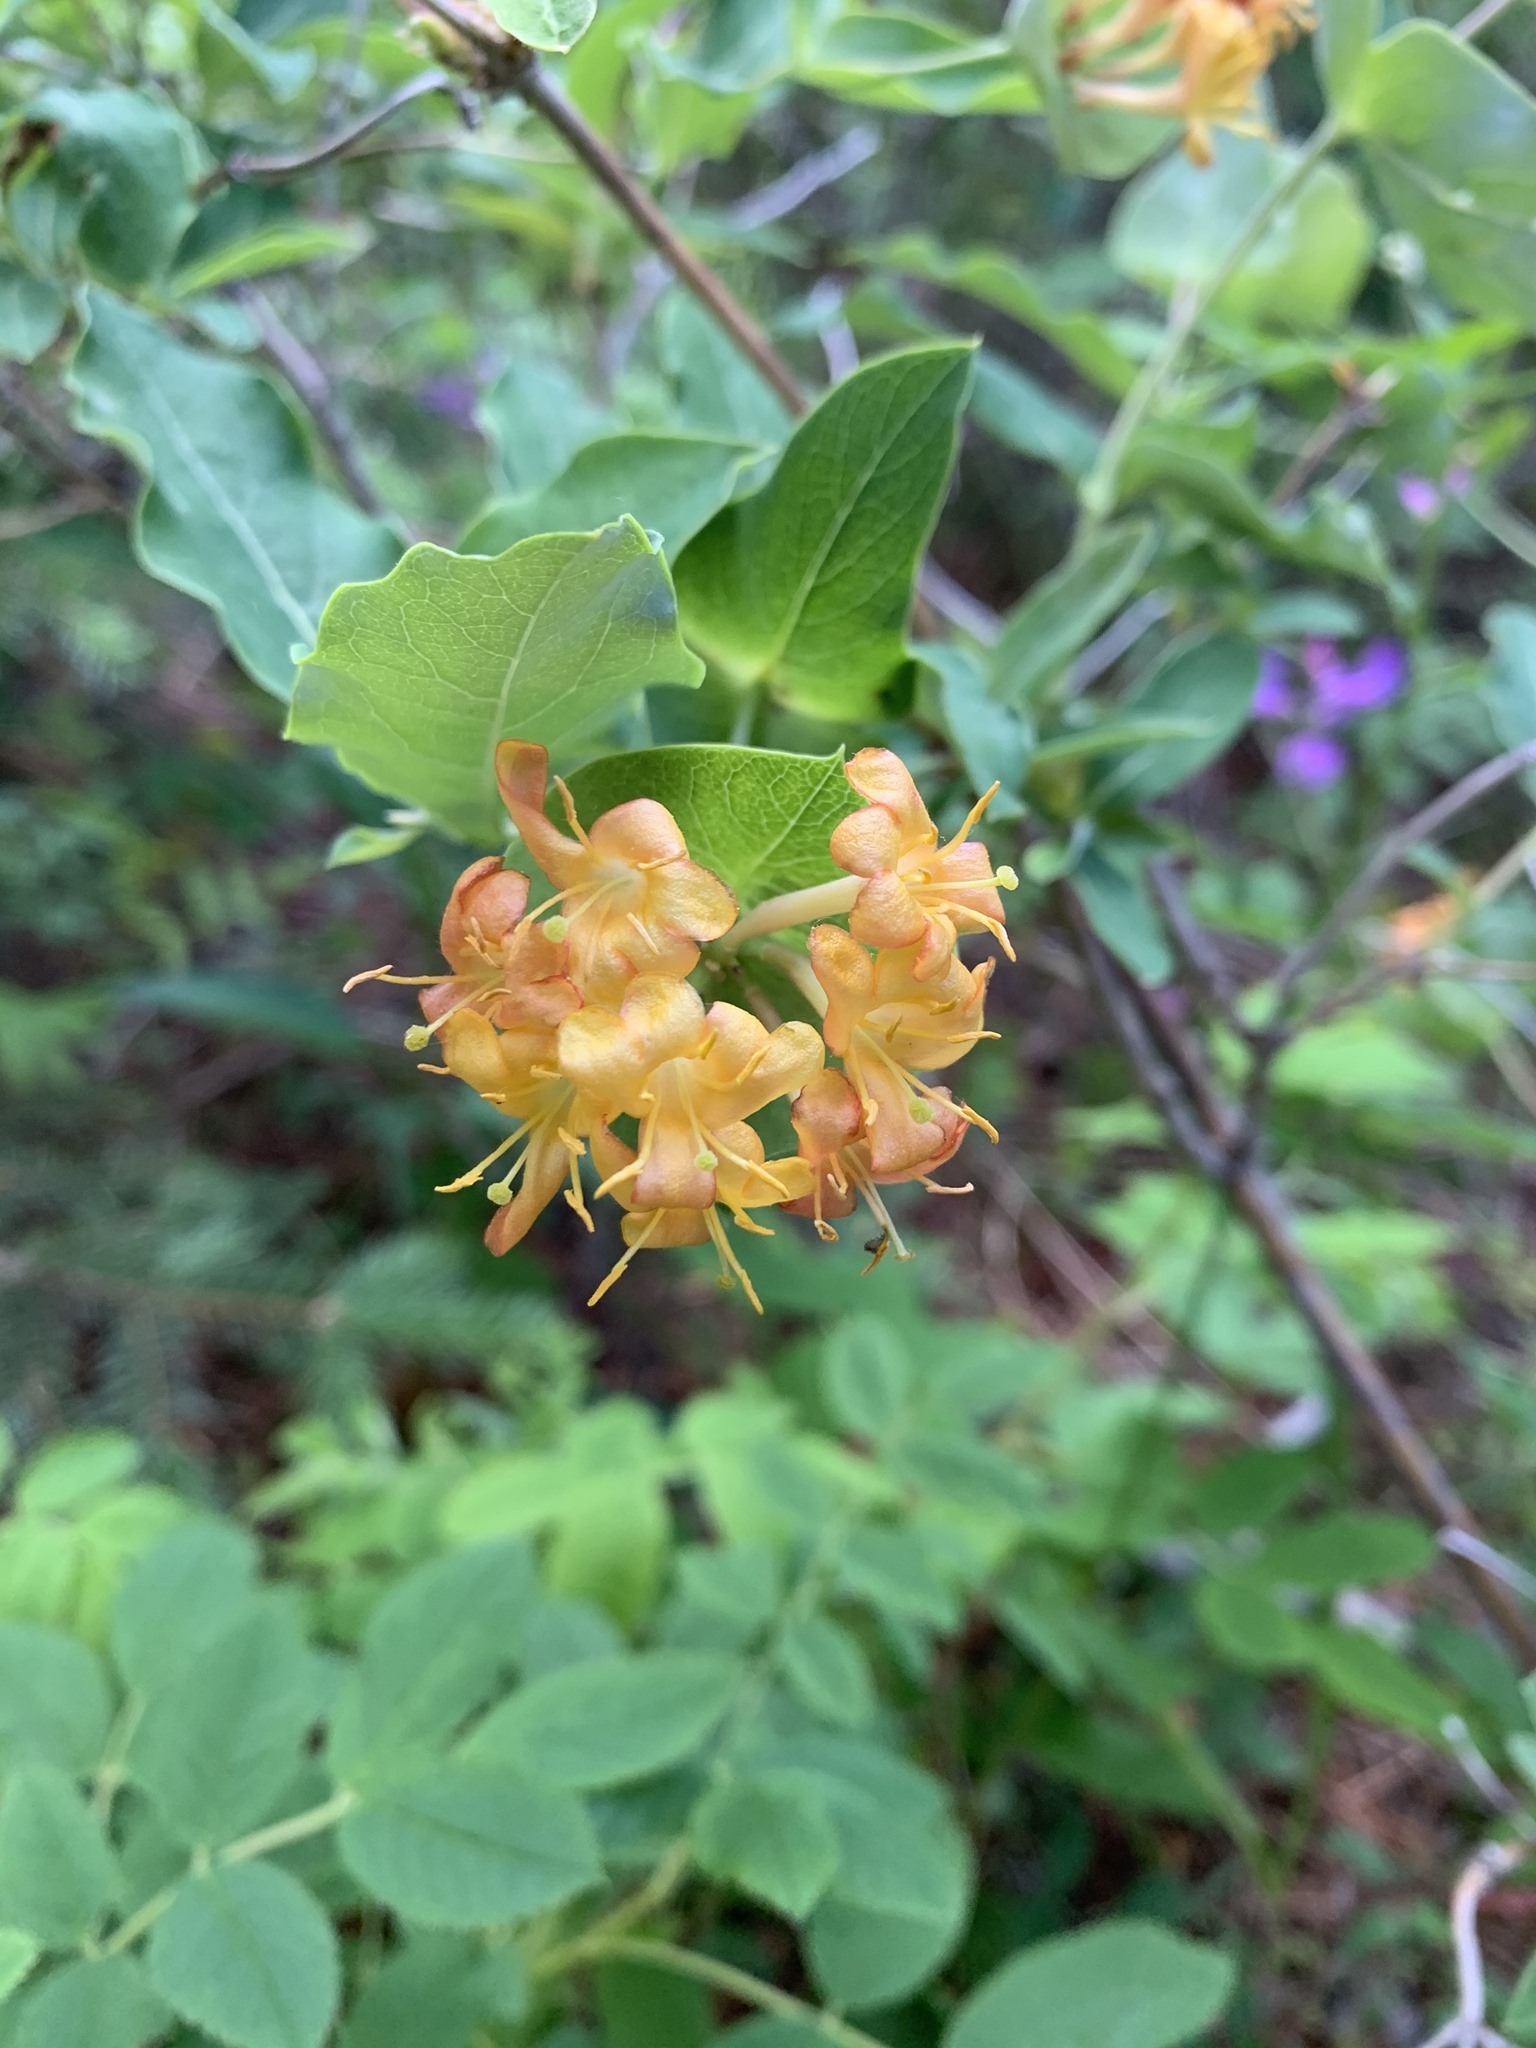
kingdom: Plantae
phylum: Tracheophyta
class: Magnoliopsida
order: Dipsacales
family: Caprifoliaceae
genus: Lonicera
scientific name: Lonicera dioica
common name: Limber honeysuckle
